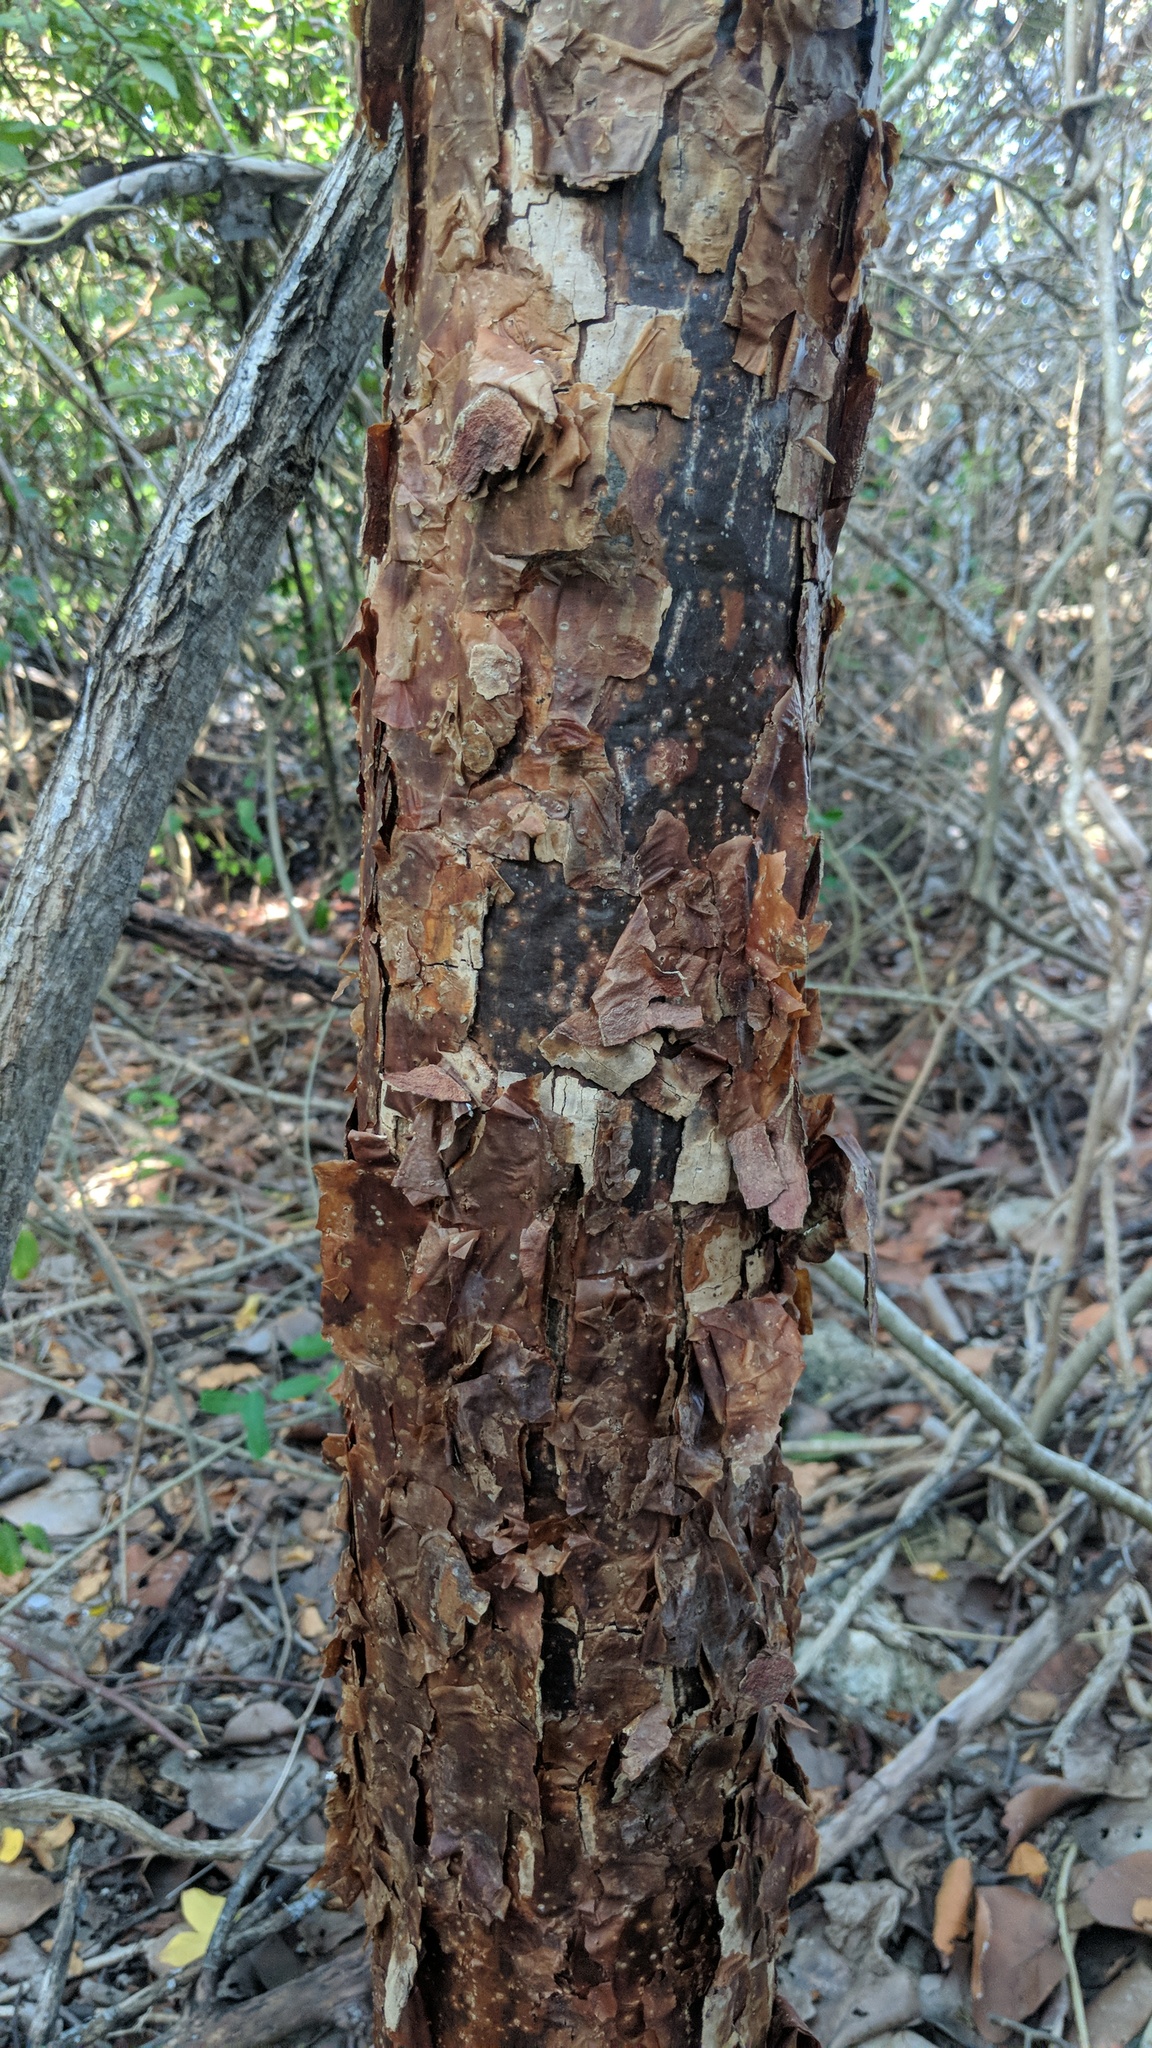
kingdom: Plantae
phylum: Tracheophyta
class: Magnoliopsida
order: Sapindales
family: Burseraceae
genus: Bursera
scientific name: Bursera simaruba
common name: Turpentine tree
